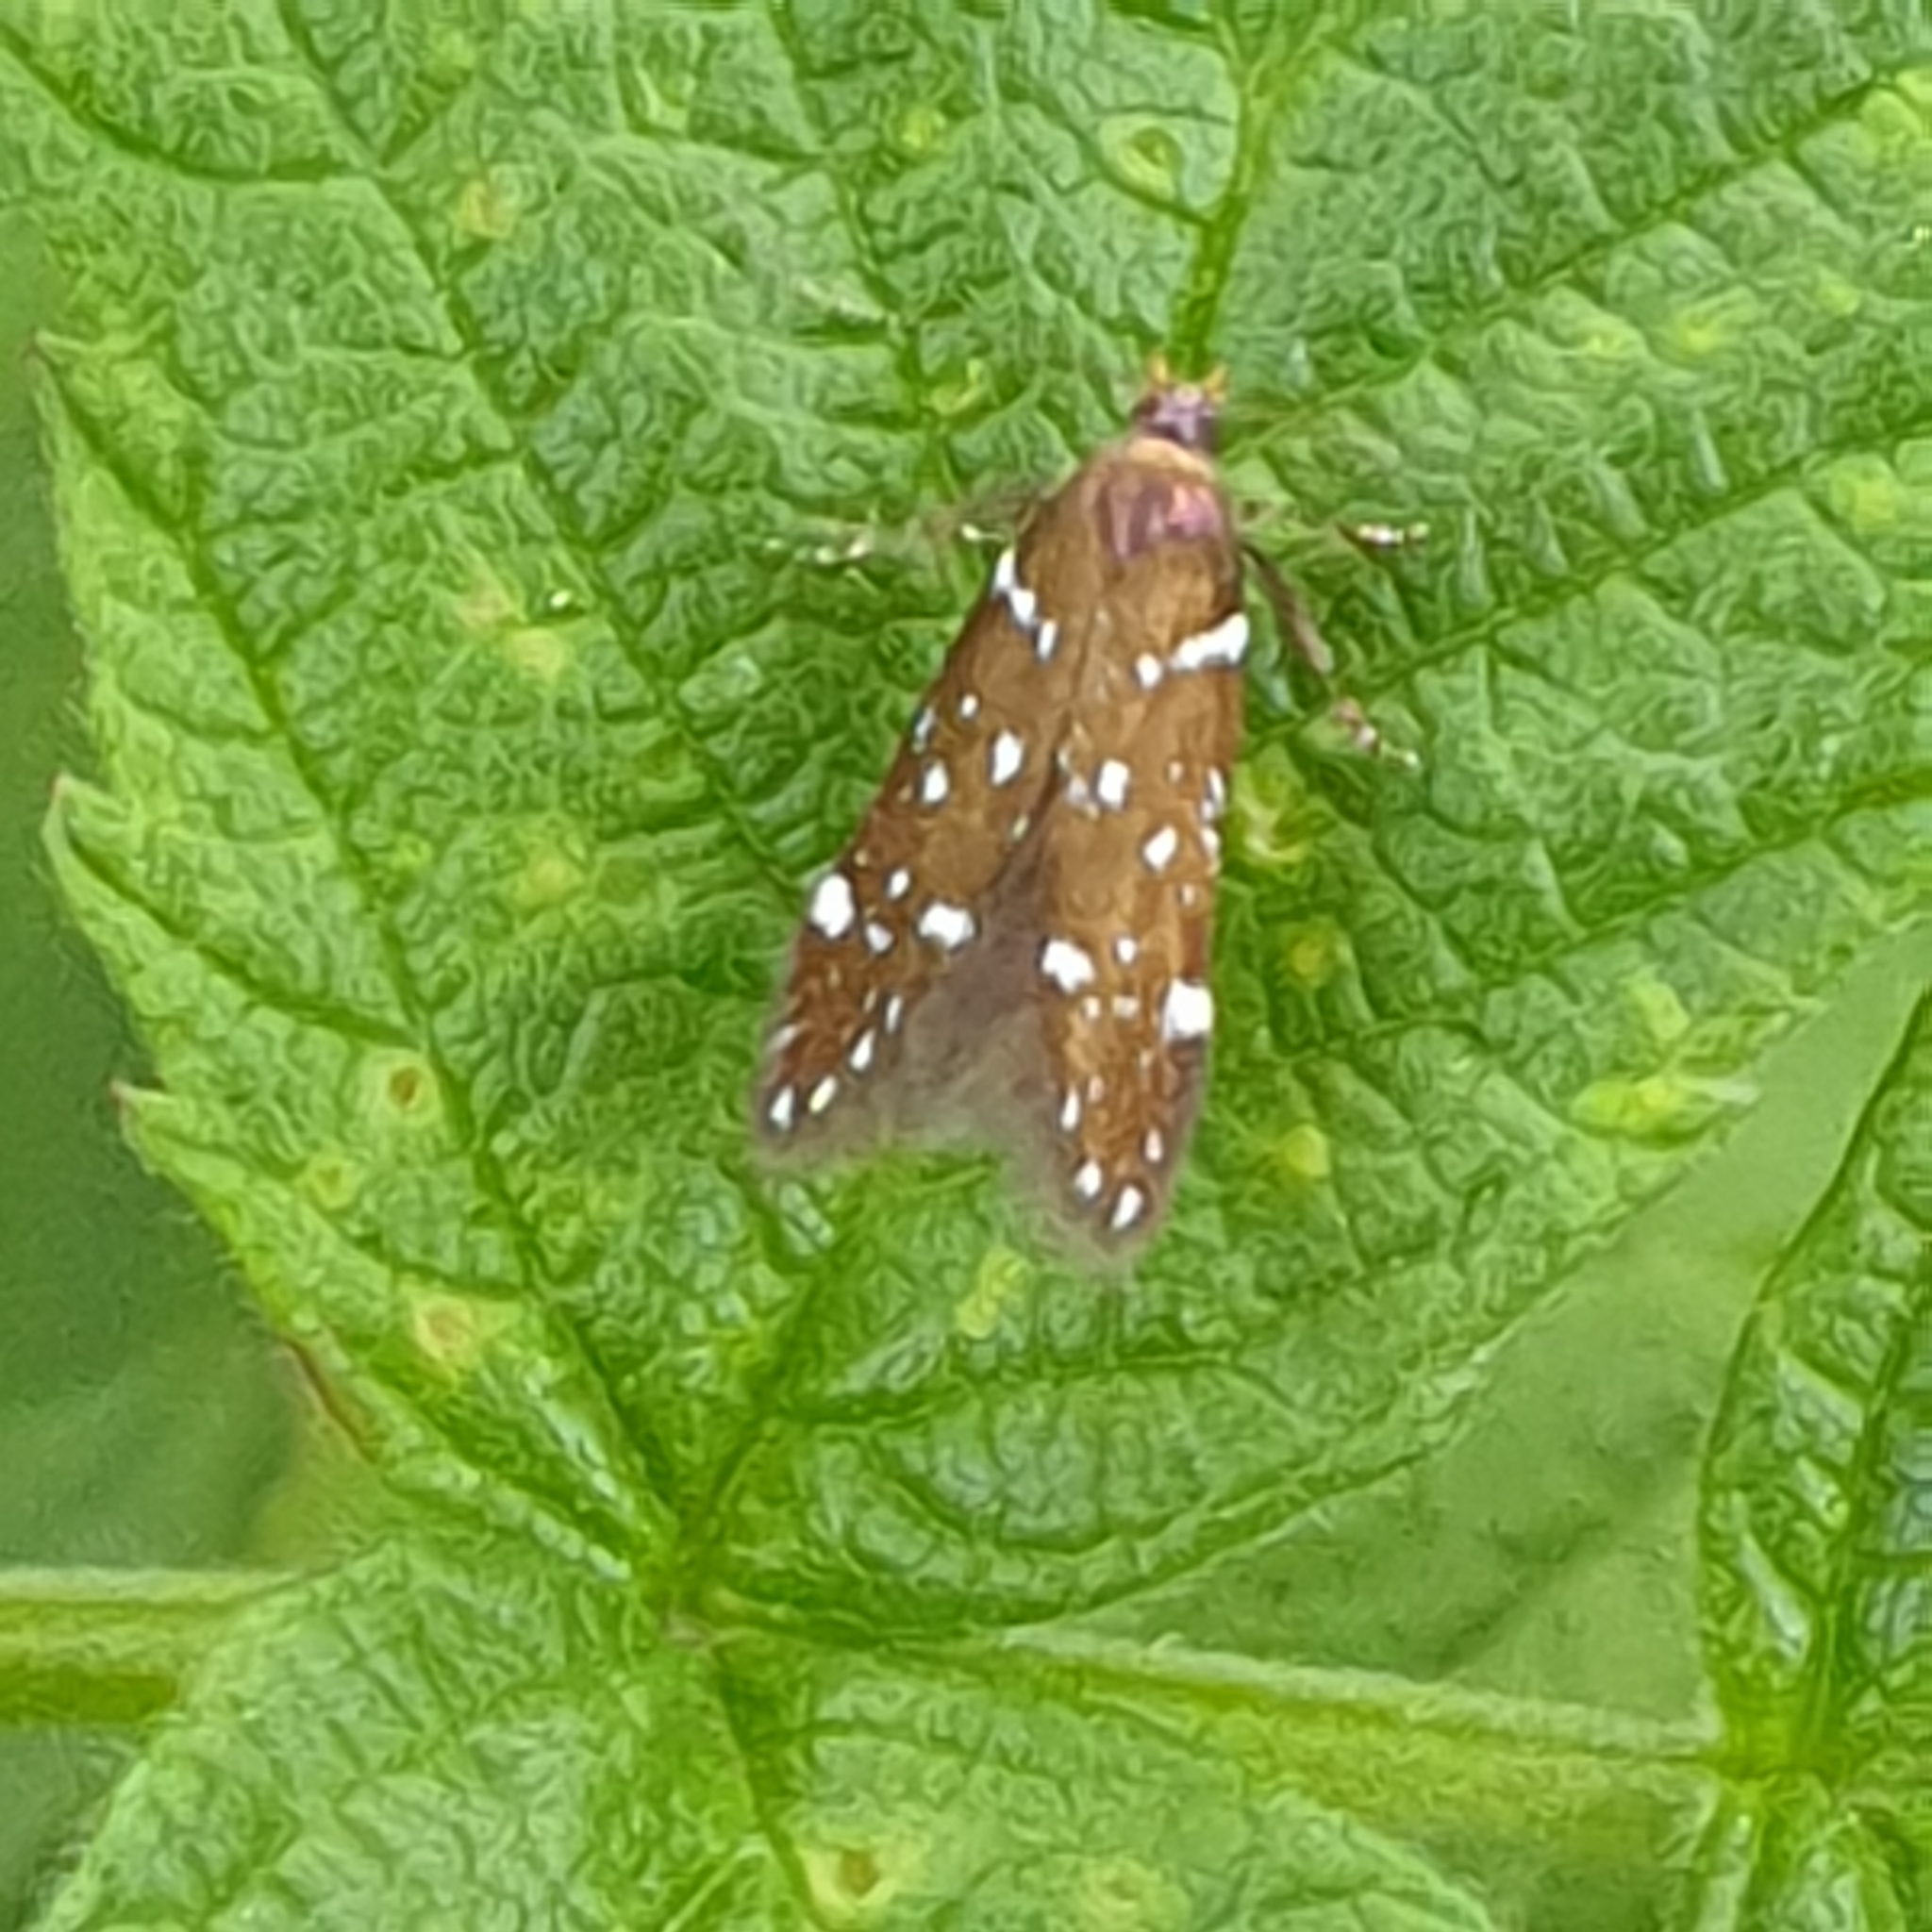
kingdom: Animalia
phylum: Arthropoda
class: Insecta
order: Lepidoptera
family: Gelechiidae
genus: Argolamprotes
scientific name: Argolamprotes micella
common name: Bright neb
